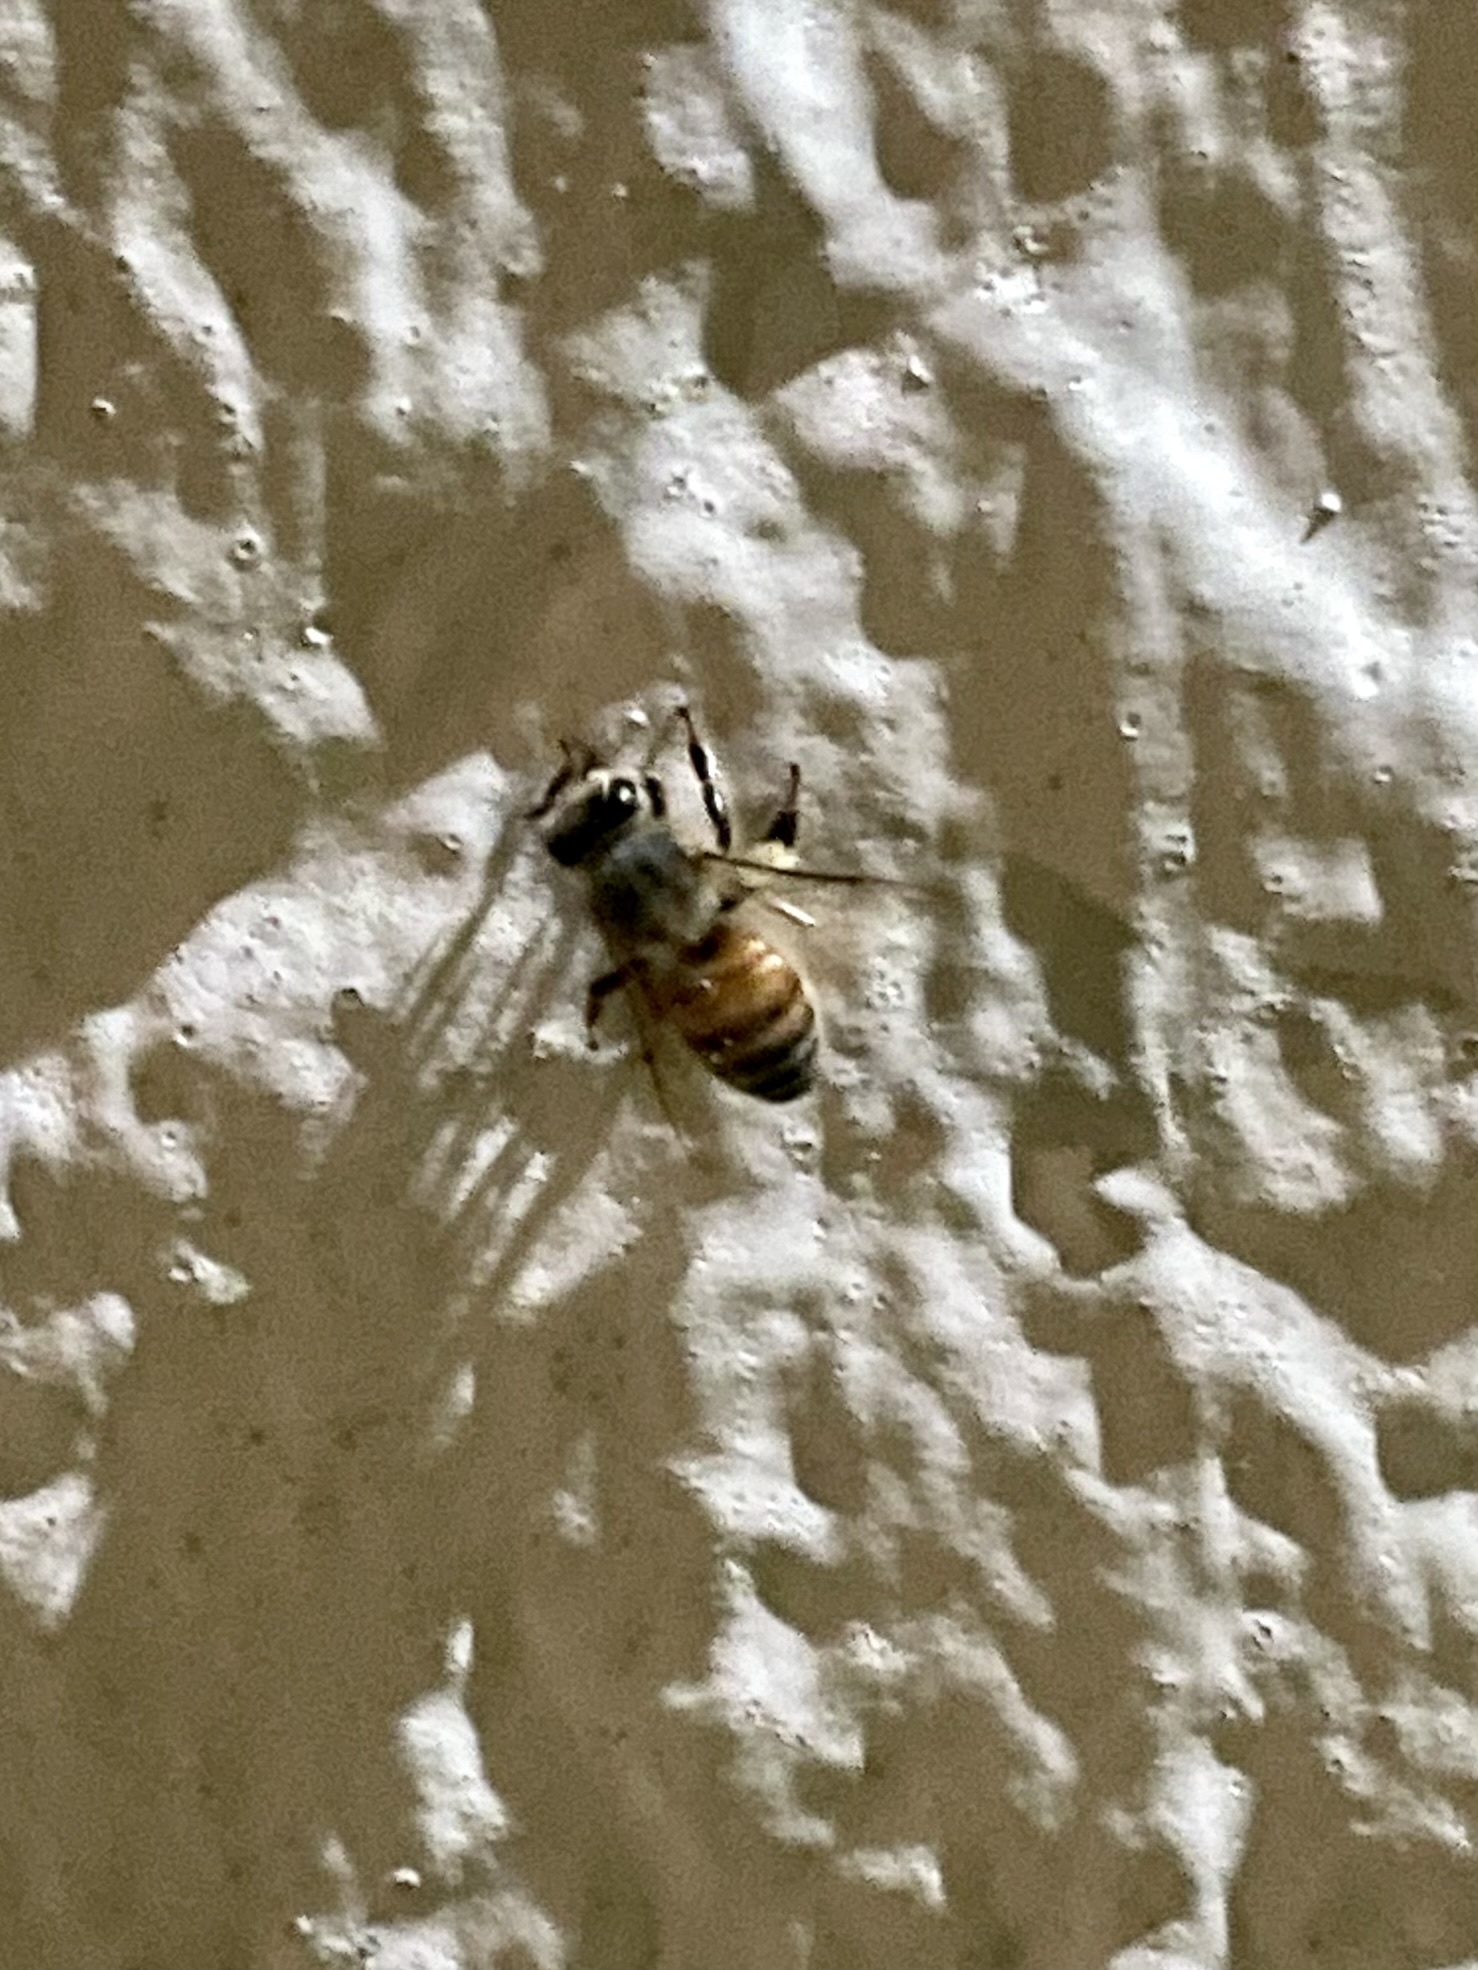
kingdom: Animalia
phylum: Arthropoda
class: Insecta
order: Hymenoptera
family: Apidae
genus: Apis
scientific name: Apis mellifera
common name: Honey bee
